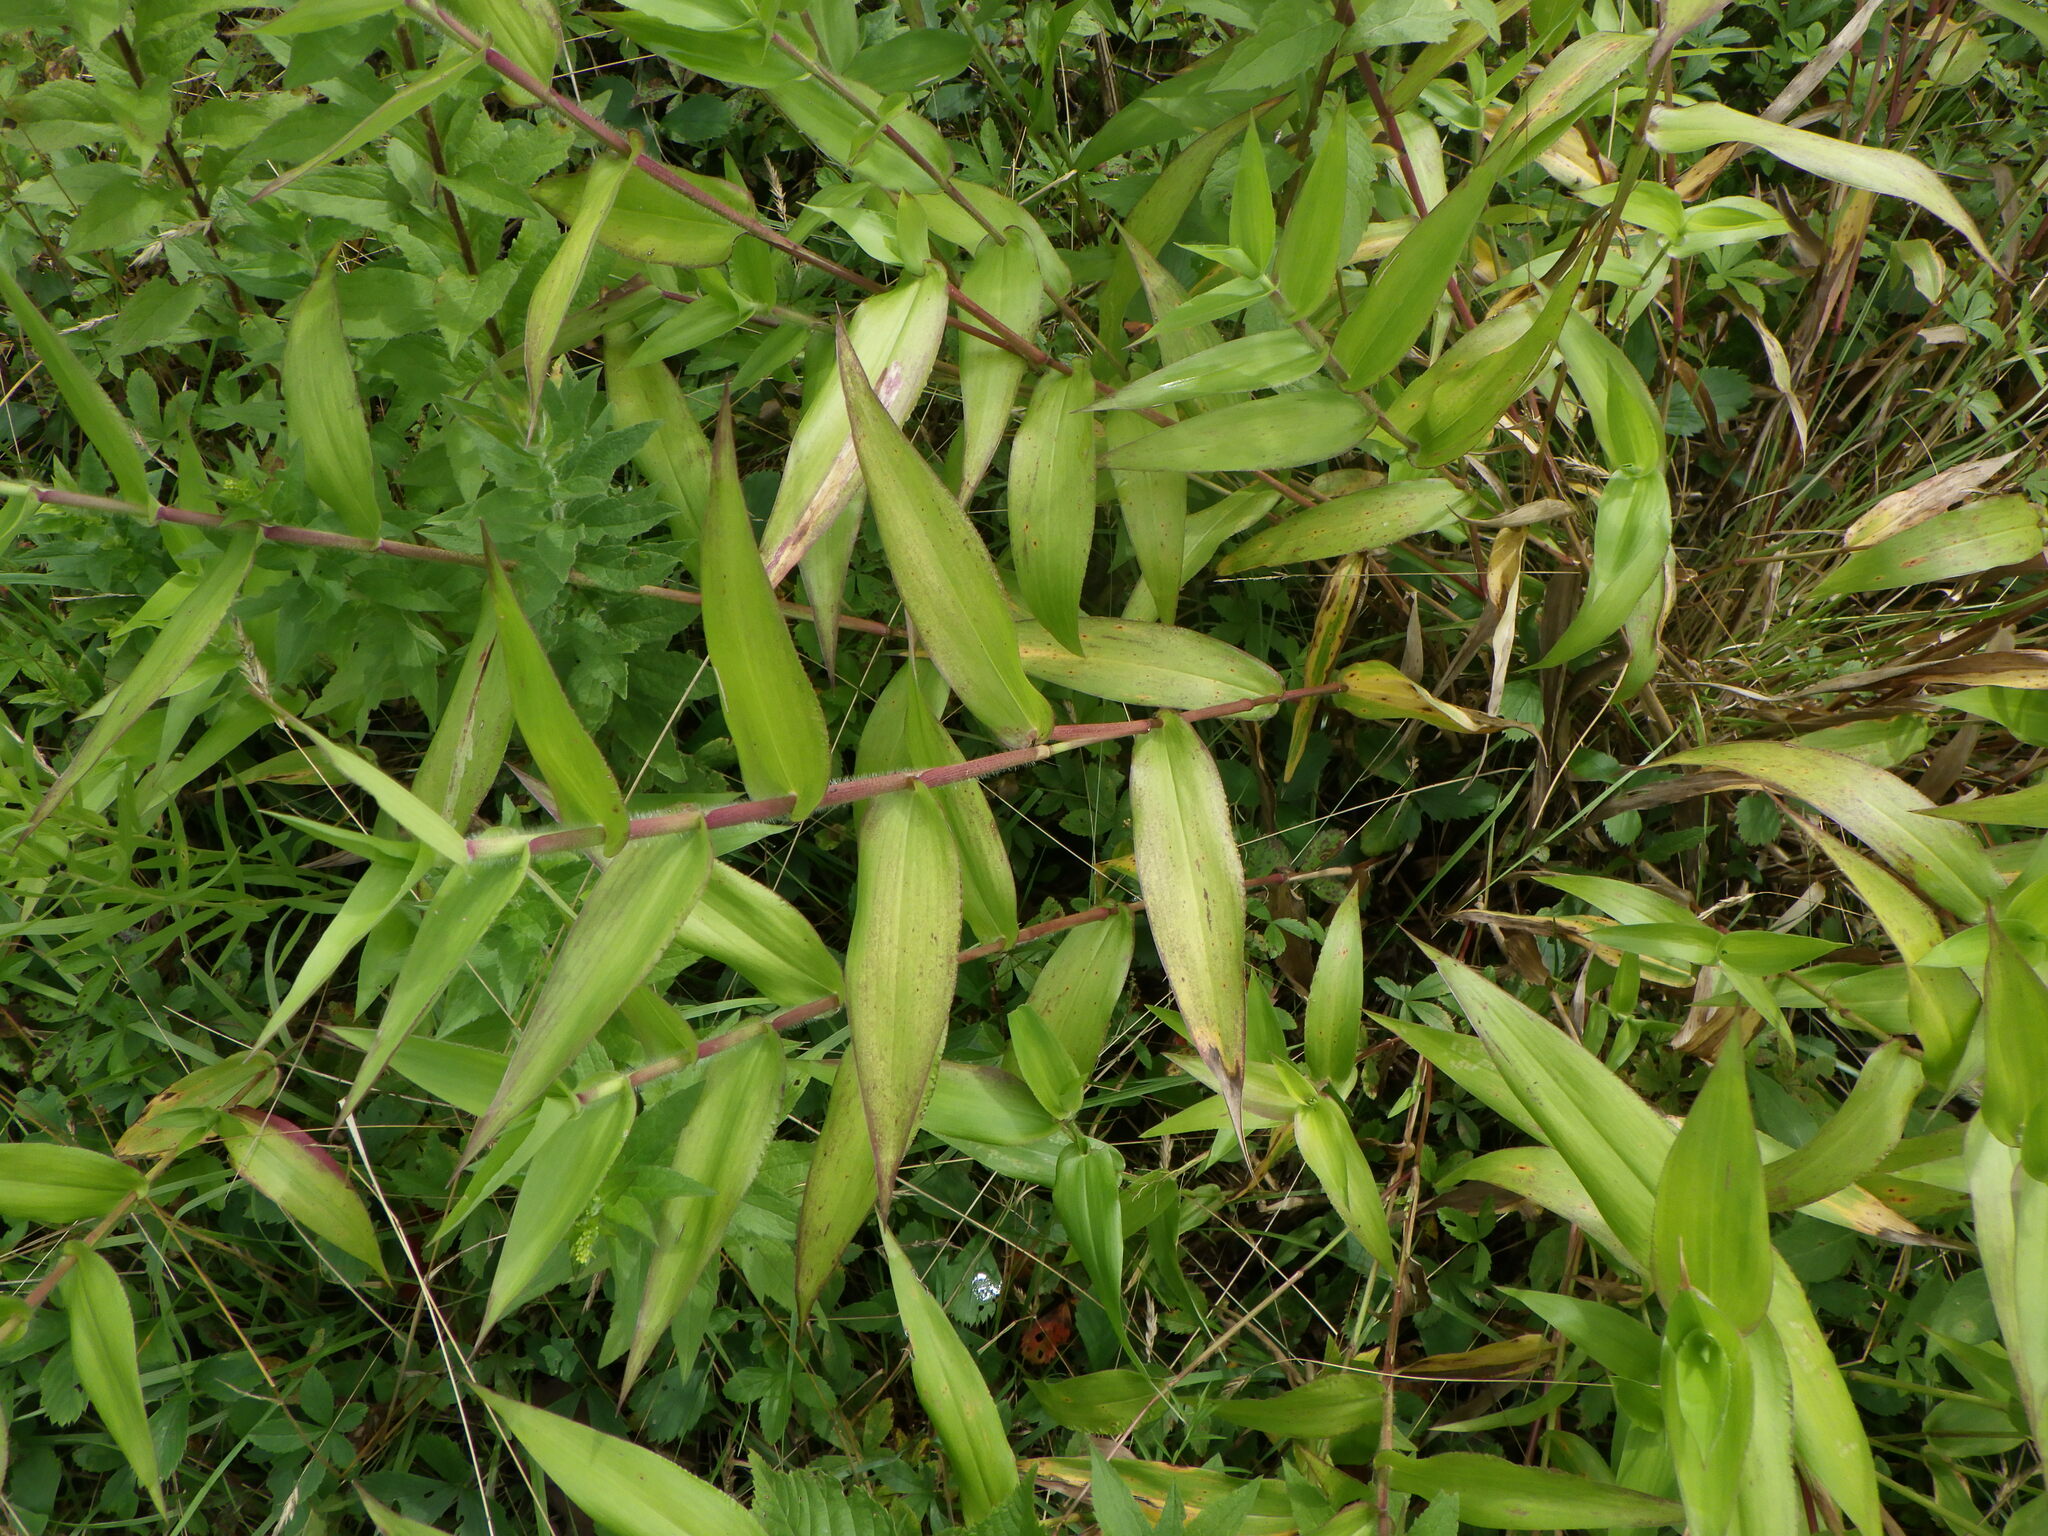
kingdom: Plantae
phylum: Tracheophyta
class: Liliopsida
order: Poales
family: Poaceae
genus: Dichanthelium
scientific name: Dichanthelium clandestinum
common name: Deer-tongue grass
